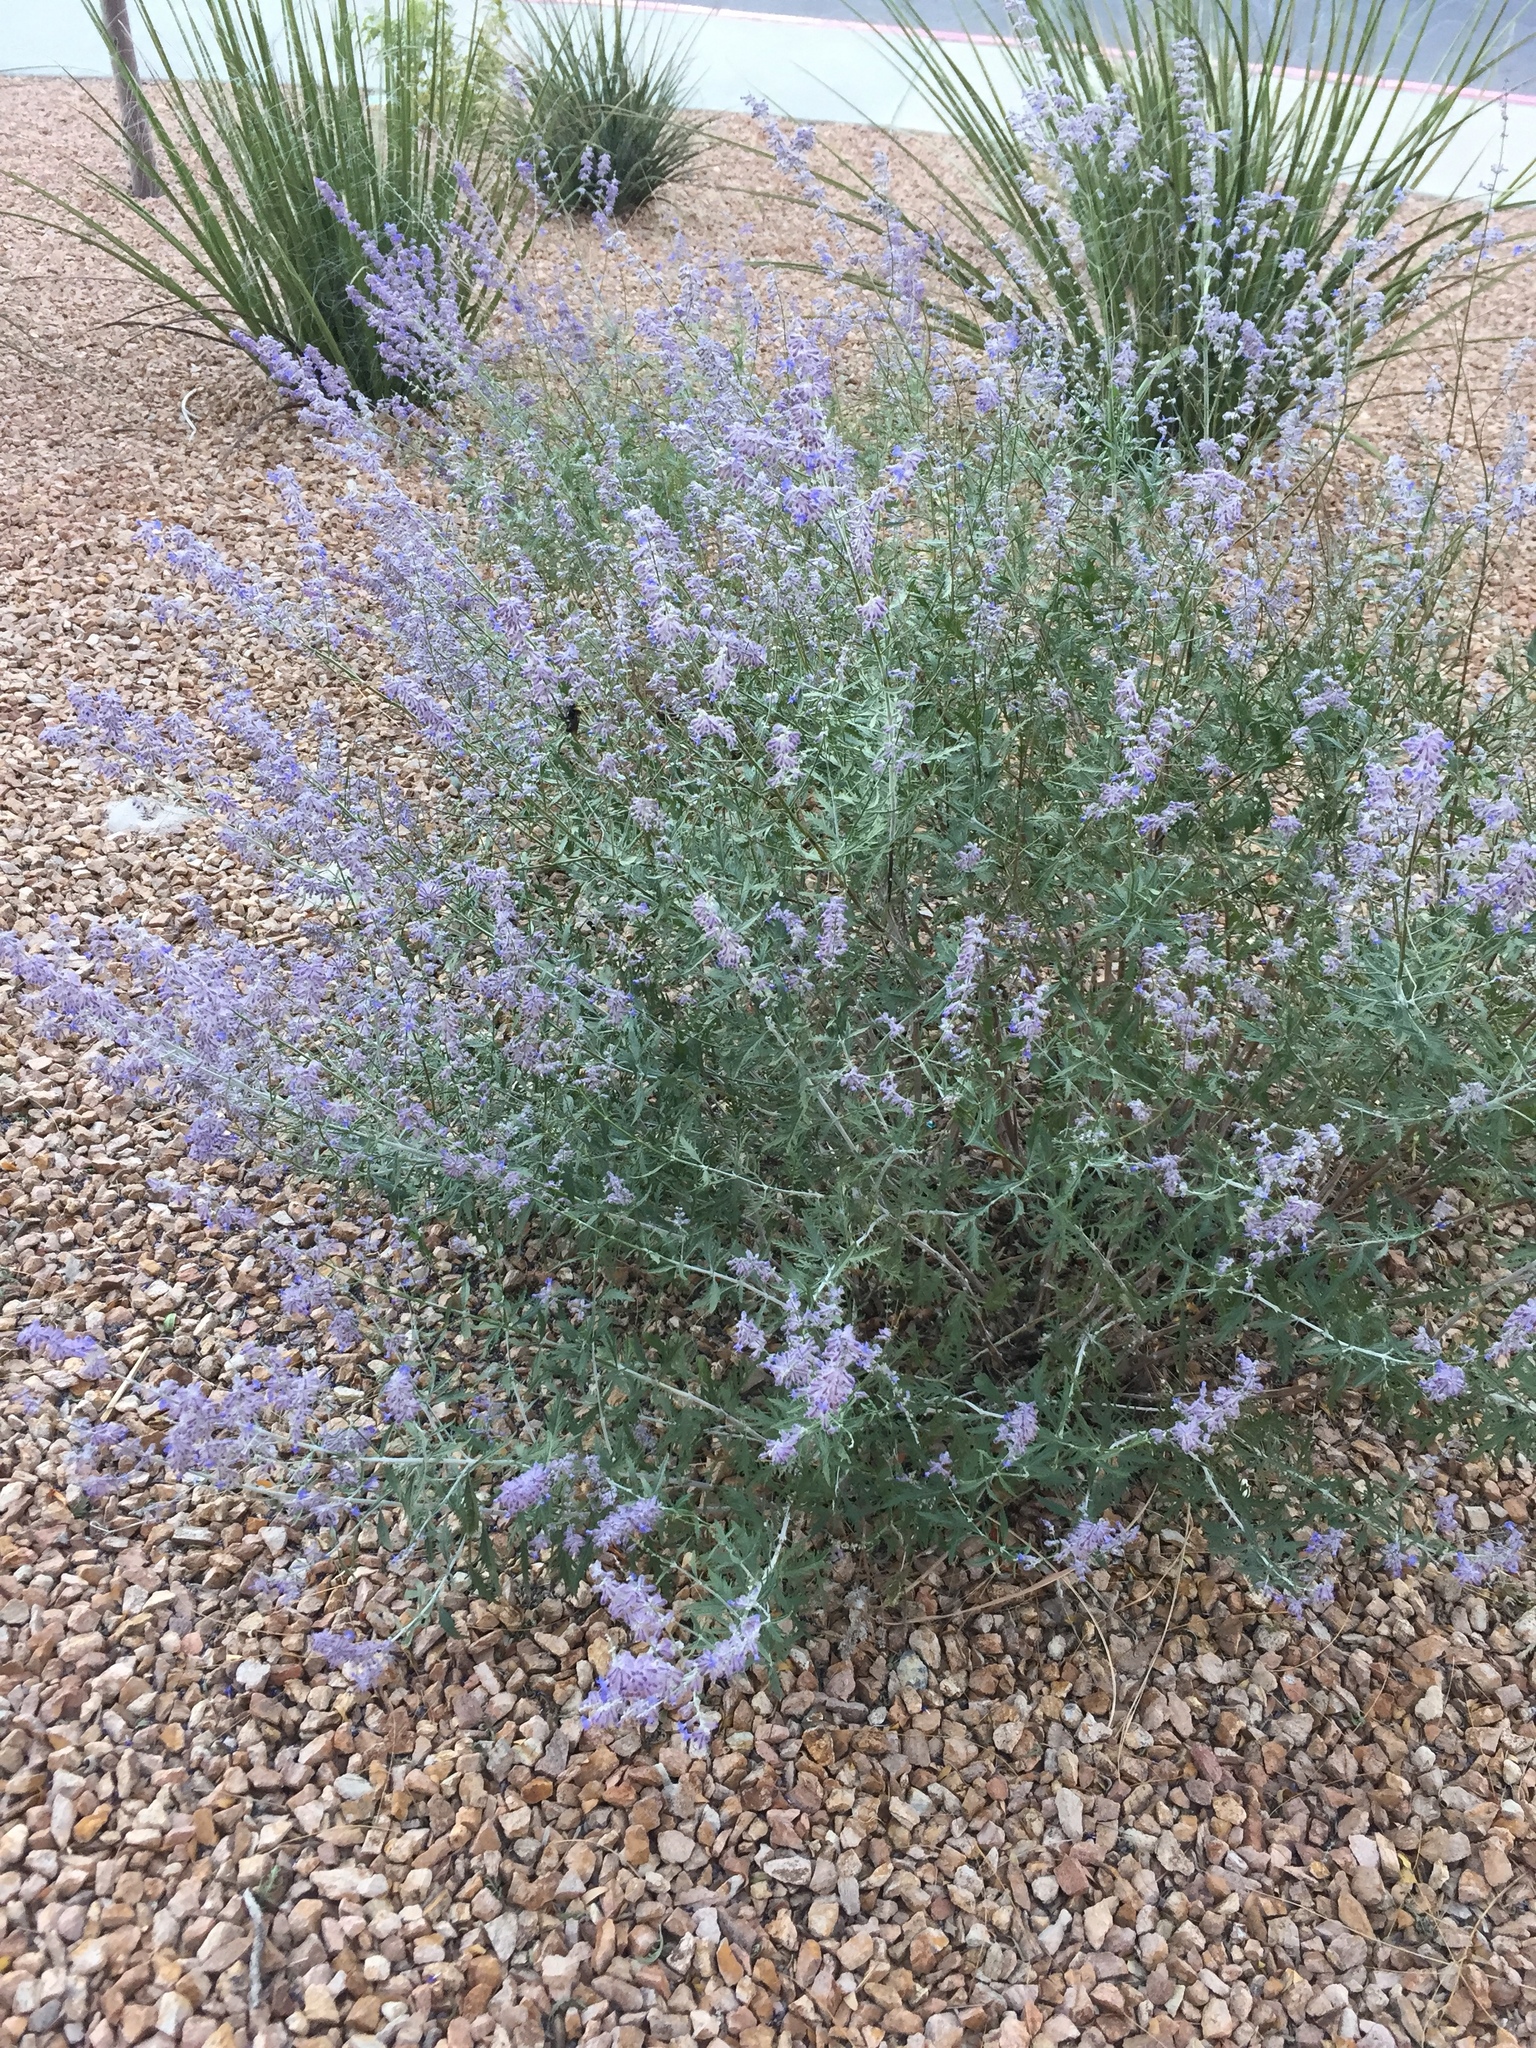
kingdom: Animalia
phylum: Arthropoda
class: Insecta
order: Hymenoptera
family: Apidae
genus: Bombus
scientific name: Bombus sonorus
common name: Sonoran bumble bee
